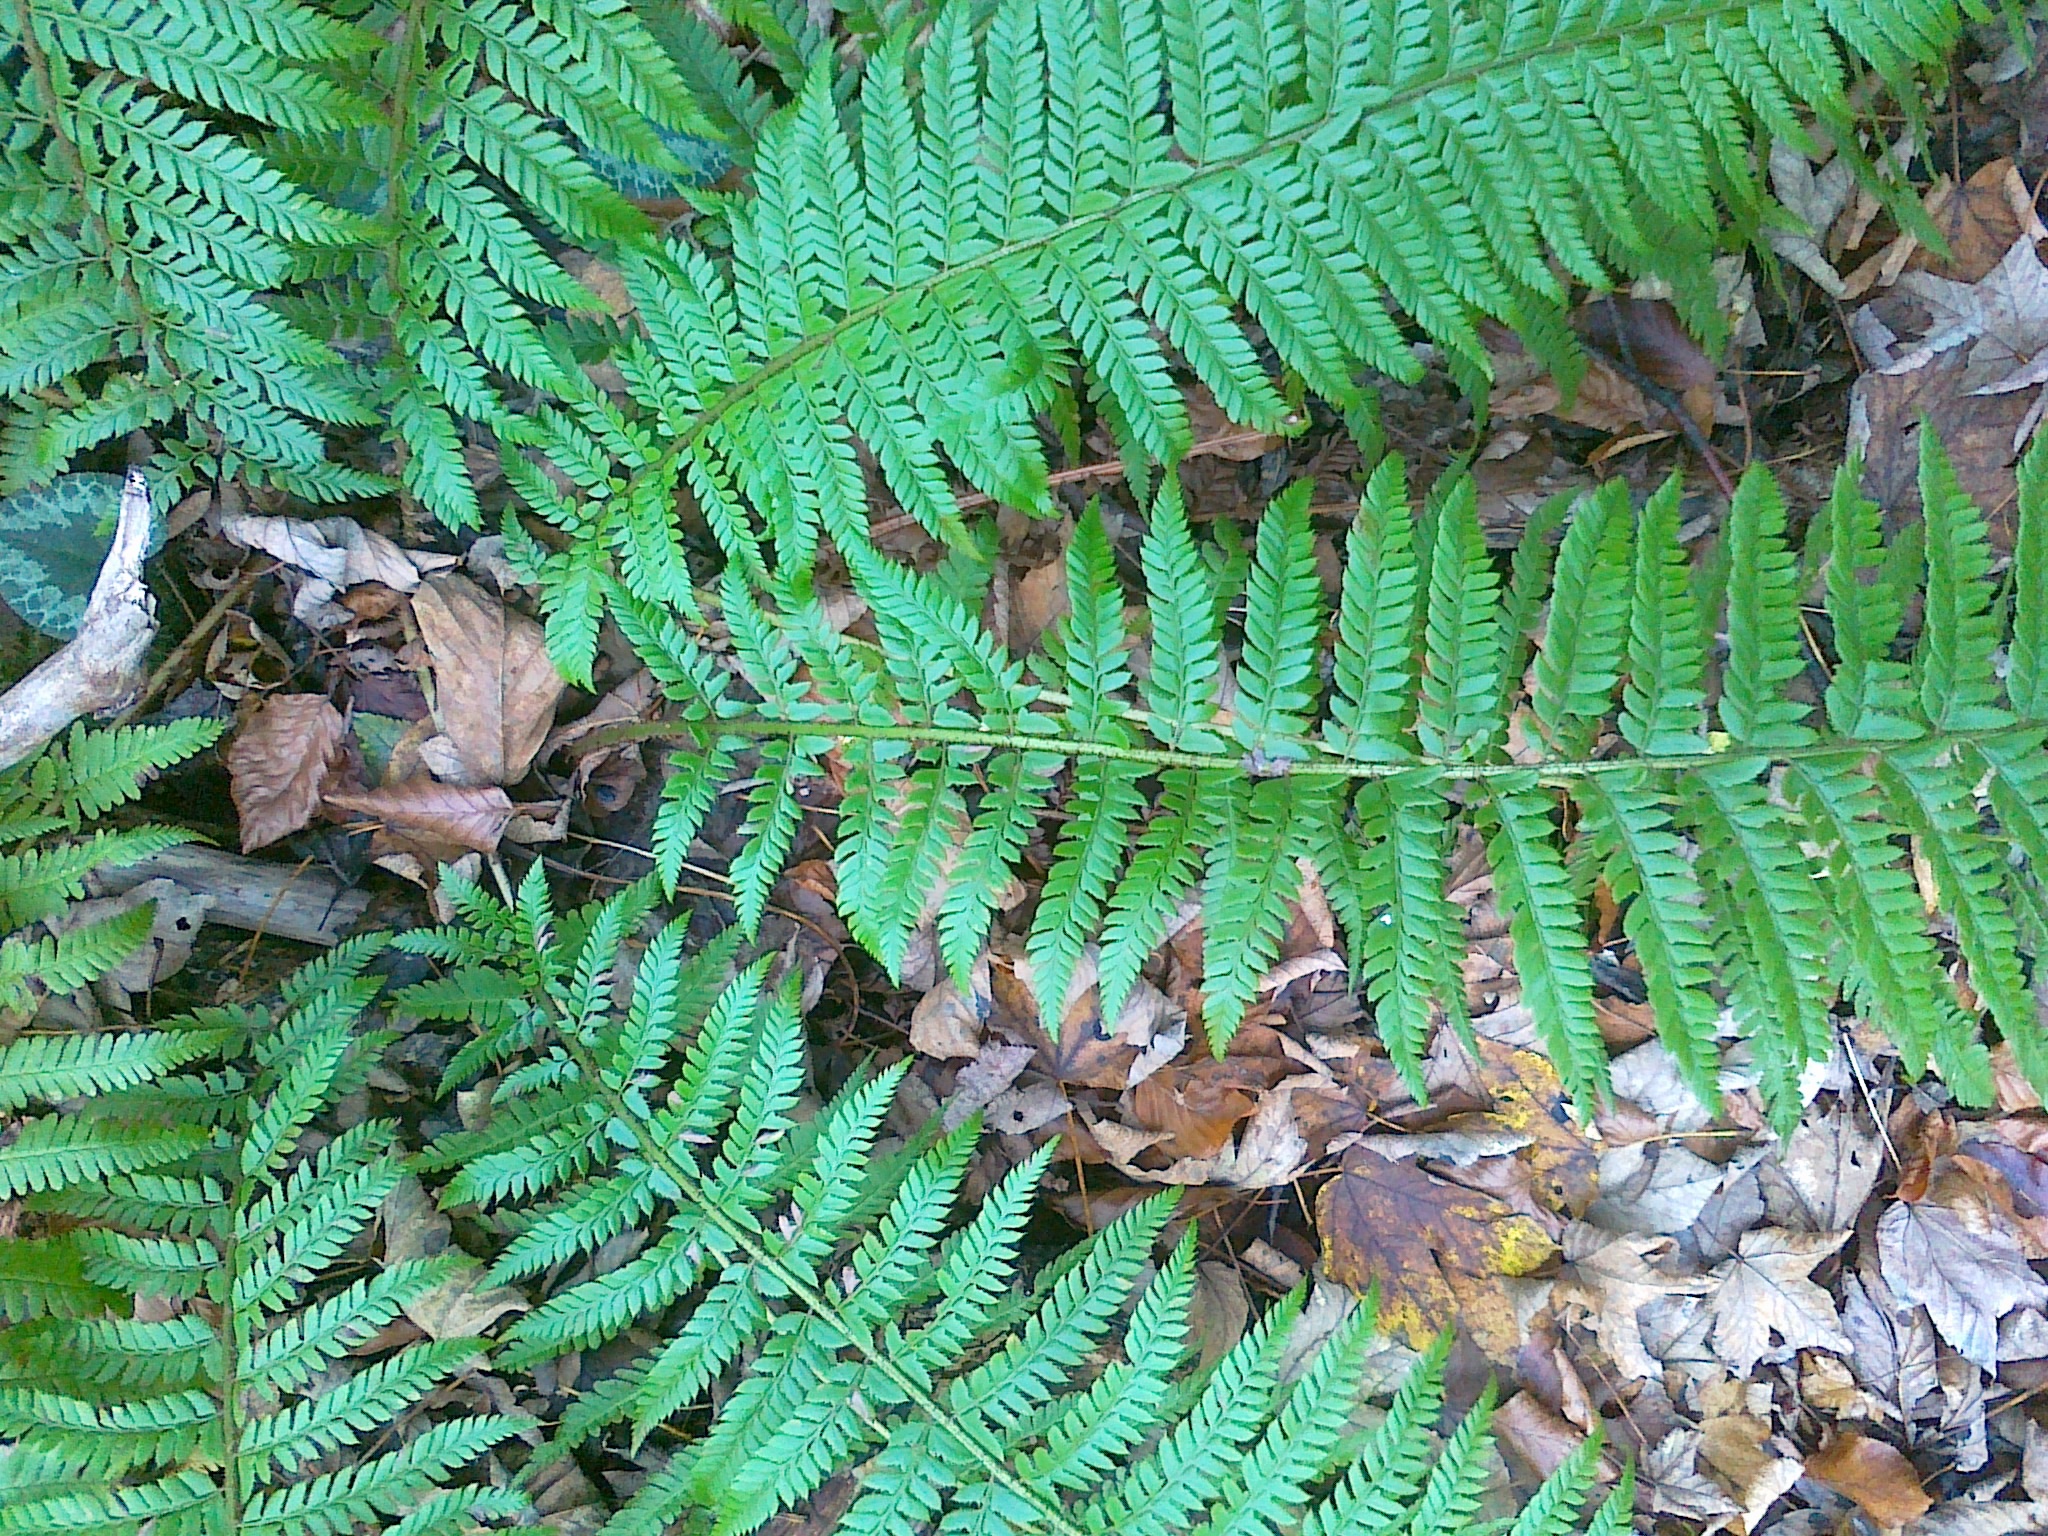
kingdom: Plantae
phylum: Tracheophyta
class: Polypodiopsida
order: Polypodiales
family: Dryopteridaceae
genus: Polystichum
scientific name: Polystichum aculeatum
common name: Hard shield-fern
